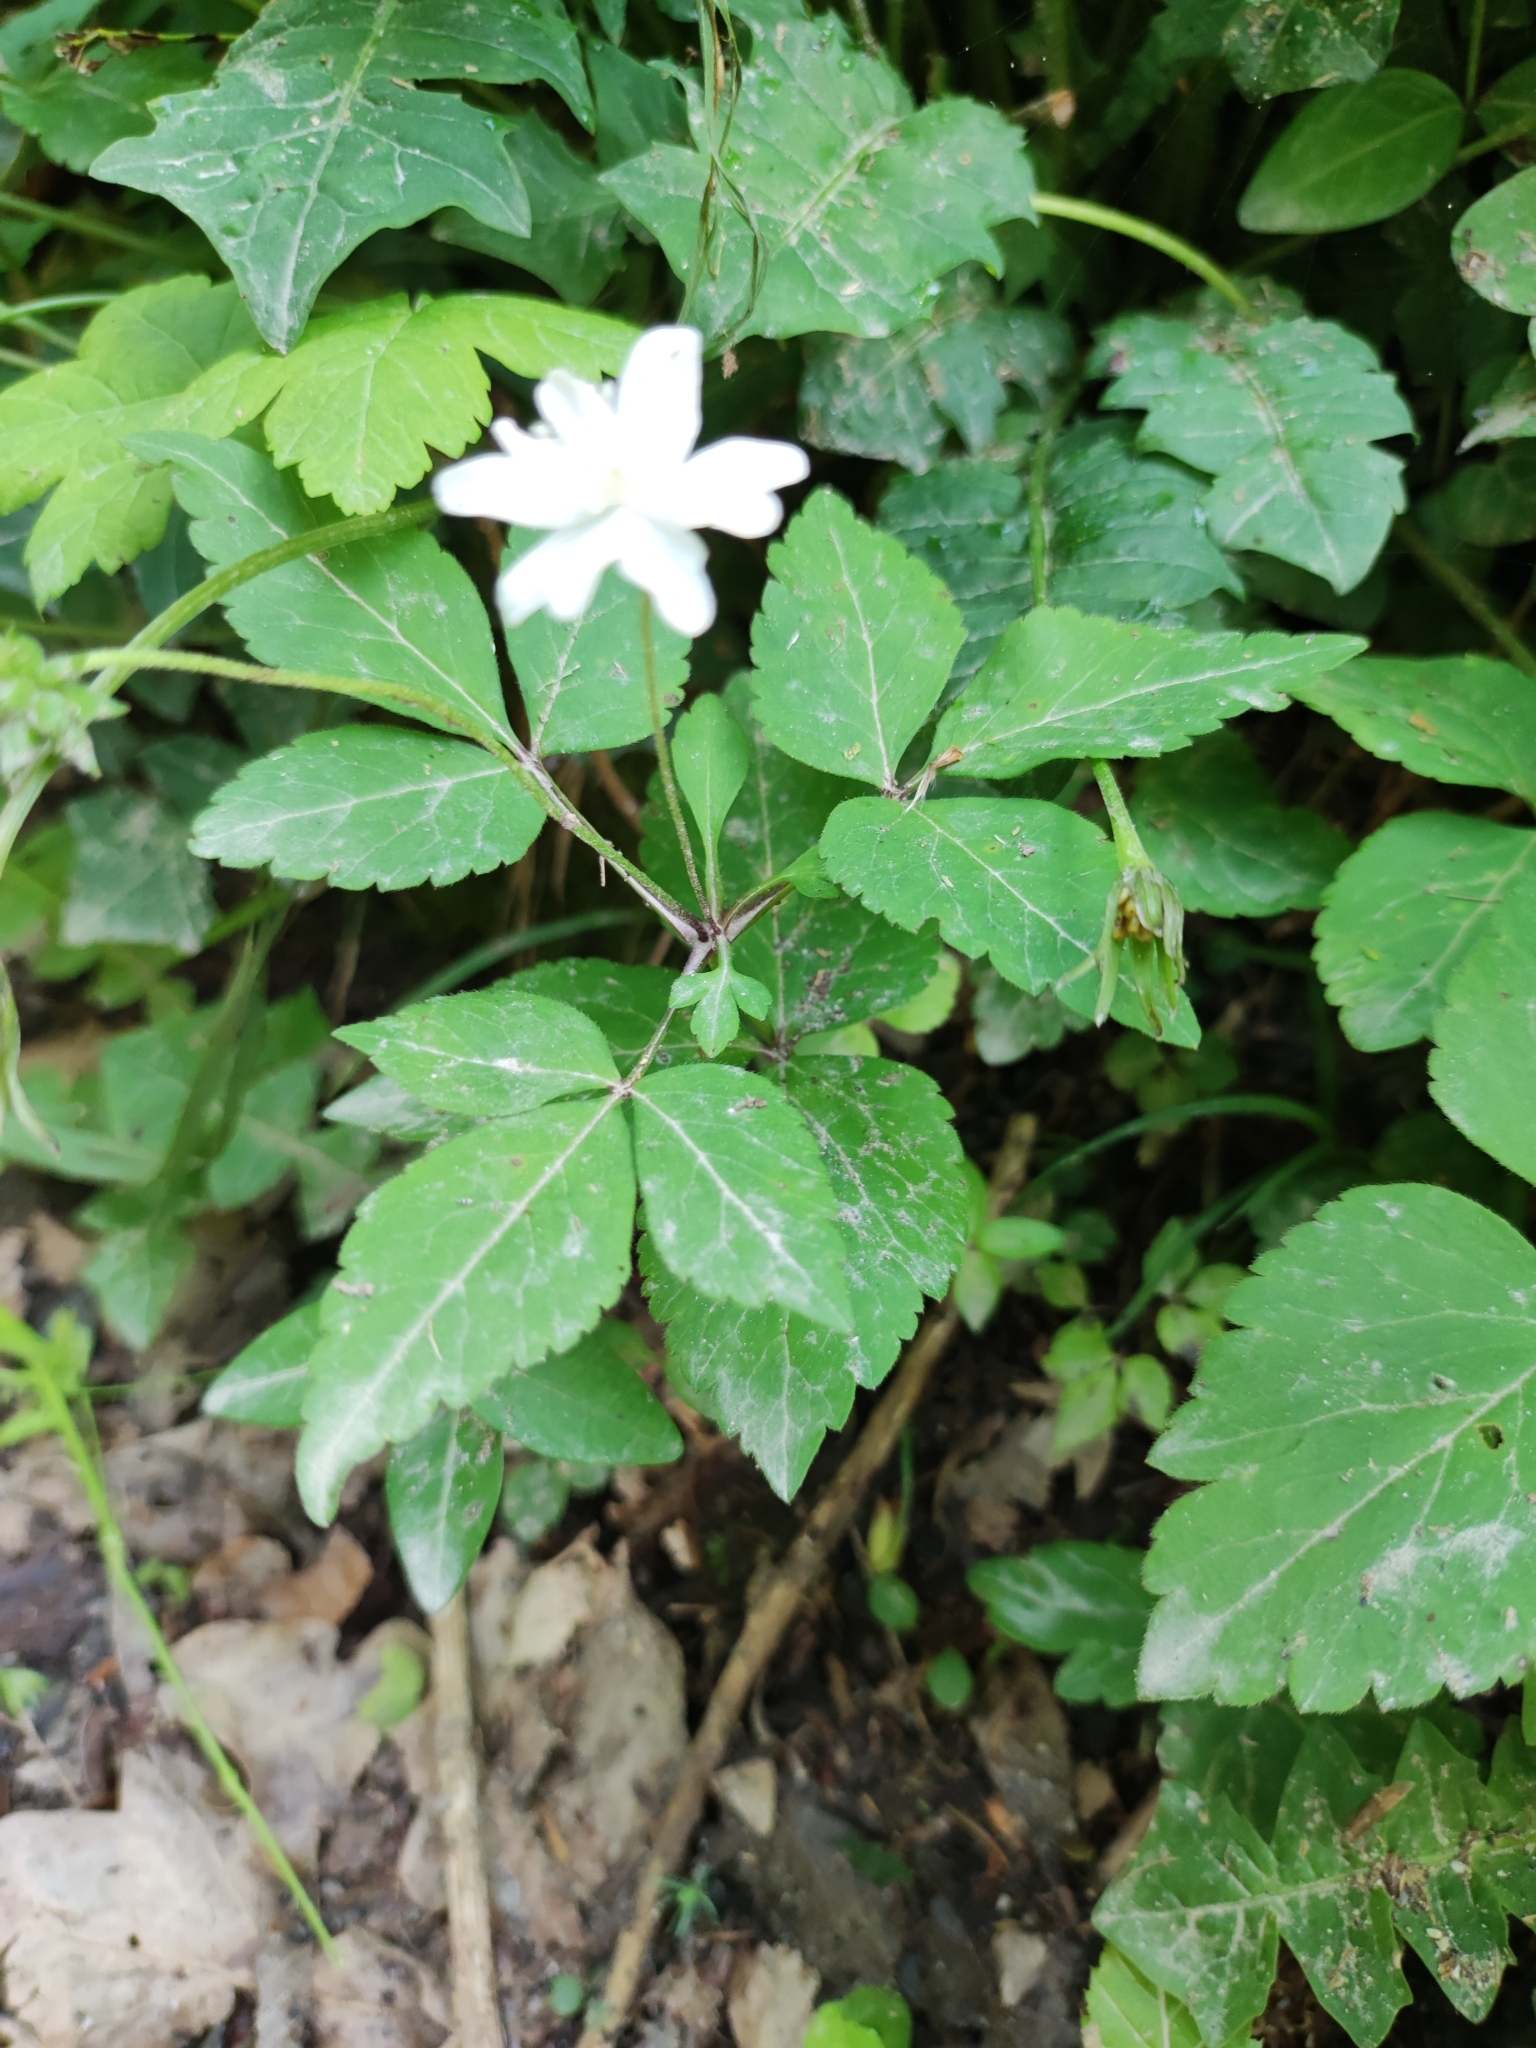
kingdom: Plantae
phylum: Tracheophyta
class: Magnoliopsida
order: Ranunculales
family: Ranunculaceae
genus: Anemone
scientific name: Anemone trifolia
